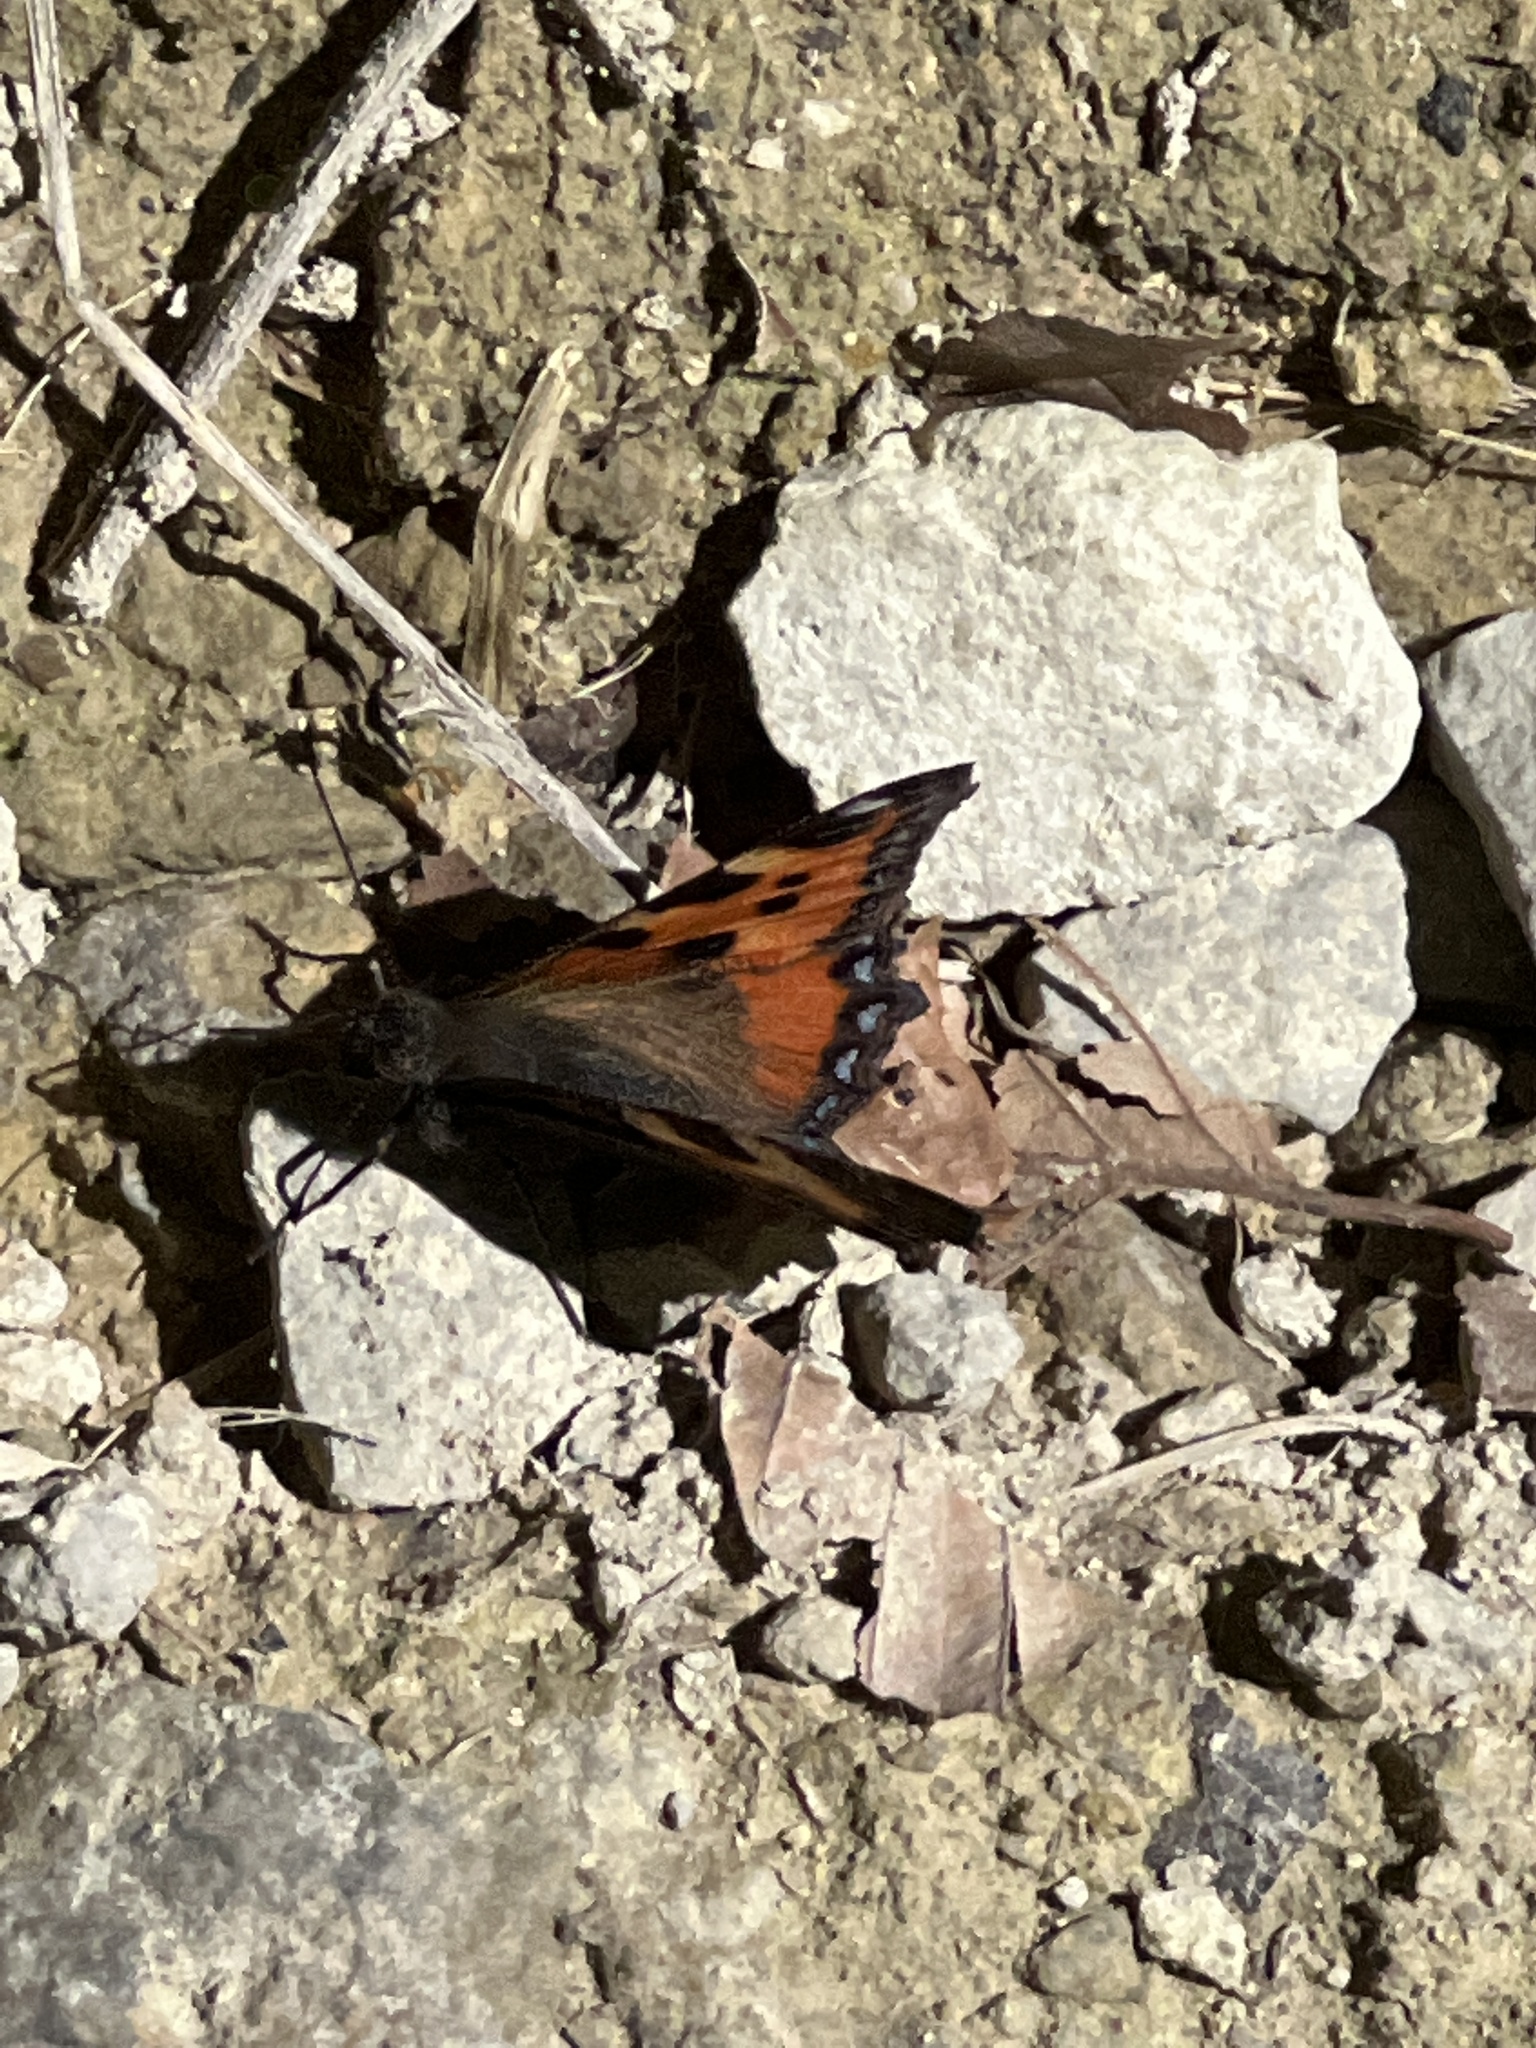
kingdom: Animalia
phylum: Arthropoda
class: Insecta
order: Lepidoptera
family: Nymphalidae
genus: Aglais
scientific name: Aglais urticae
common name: Small tortoiseshell
